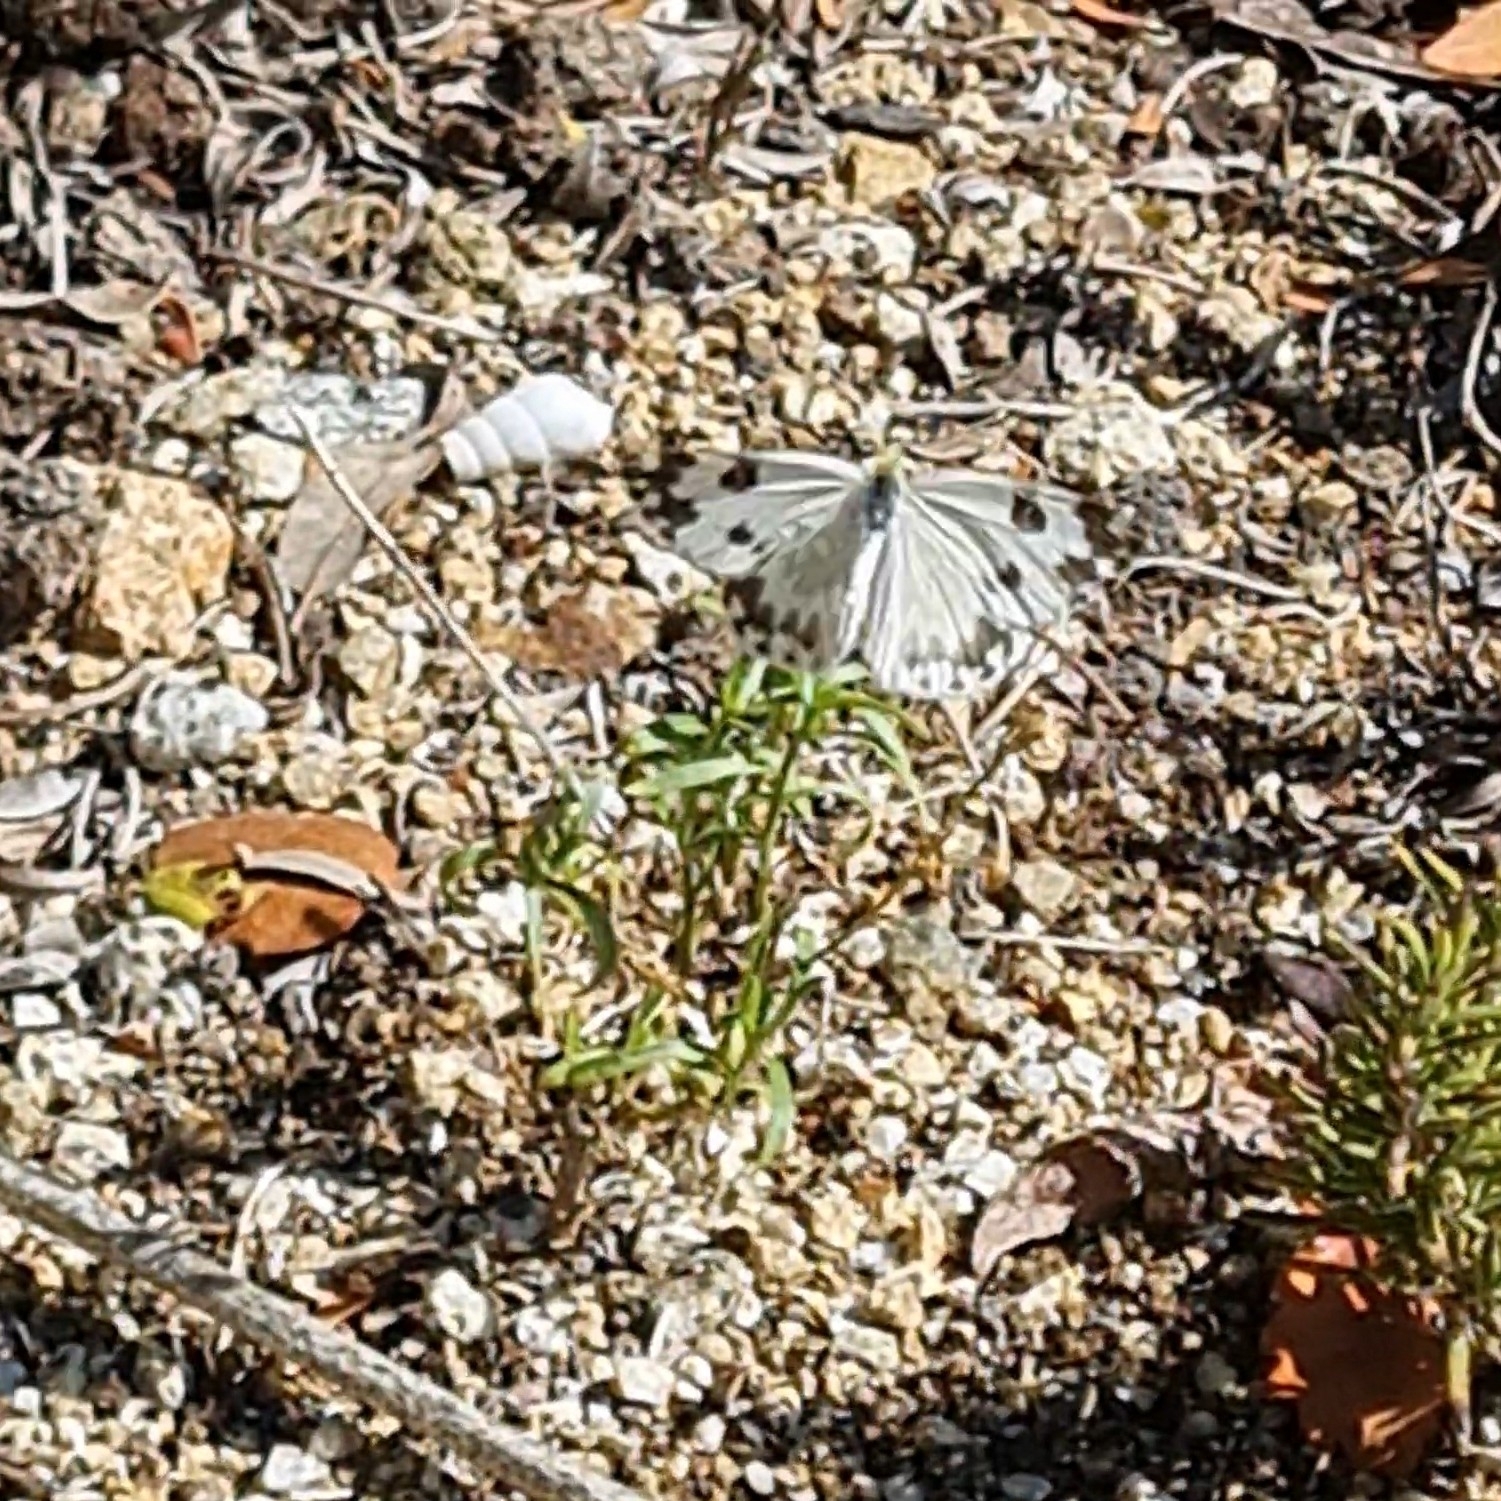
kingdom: Animalia
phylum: Arthropoda
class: Insecta
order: Lepidoptera
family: Pieridae
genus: Pontia
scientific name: Pontia daplidice
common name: Bath white
